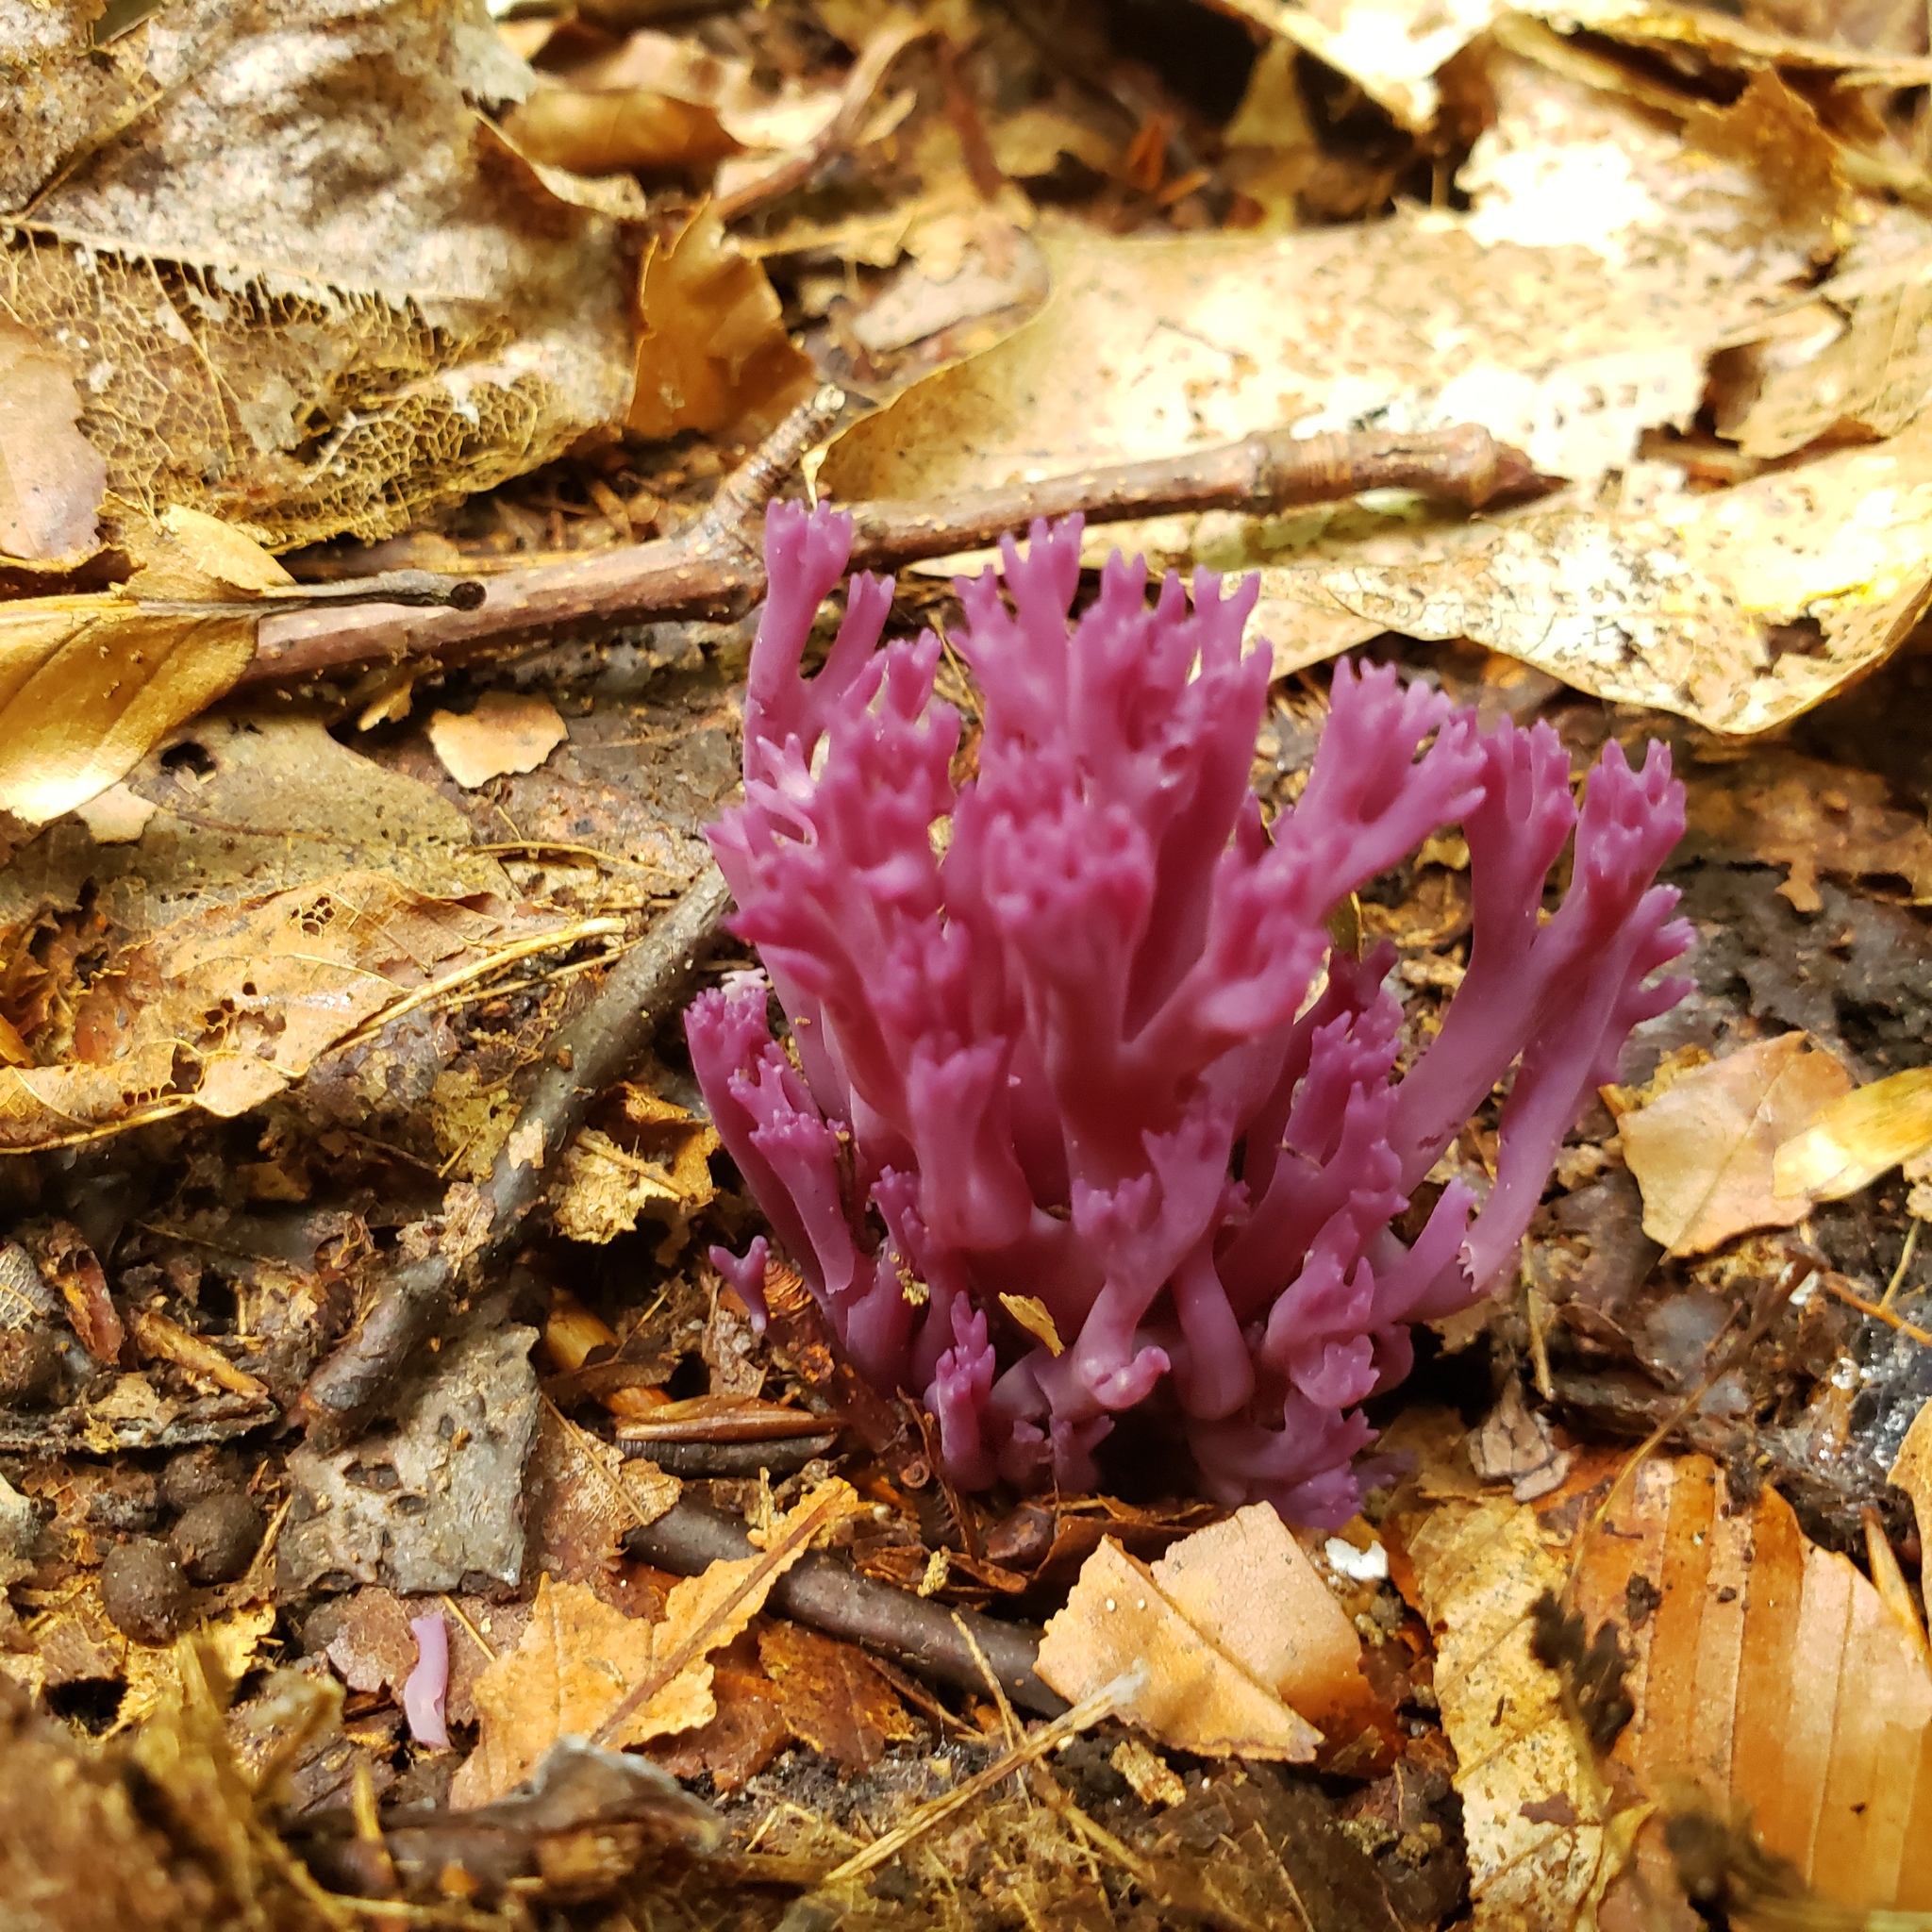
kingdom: Fungi
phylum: Basidiomycota
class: Agaricomycetes
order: Agaricales
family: Clavariaceae
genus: Clavaria
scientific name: Clavaria zollingeri
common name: Violet coral
